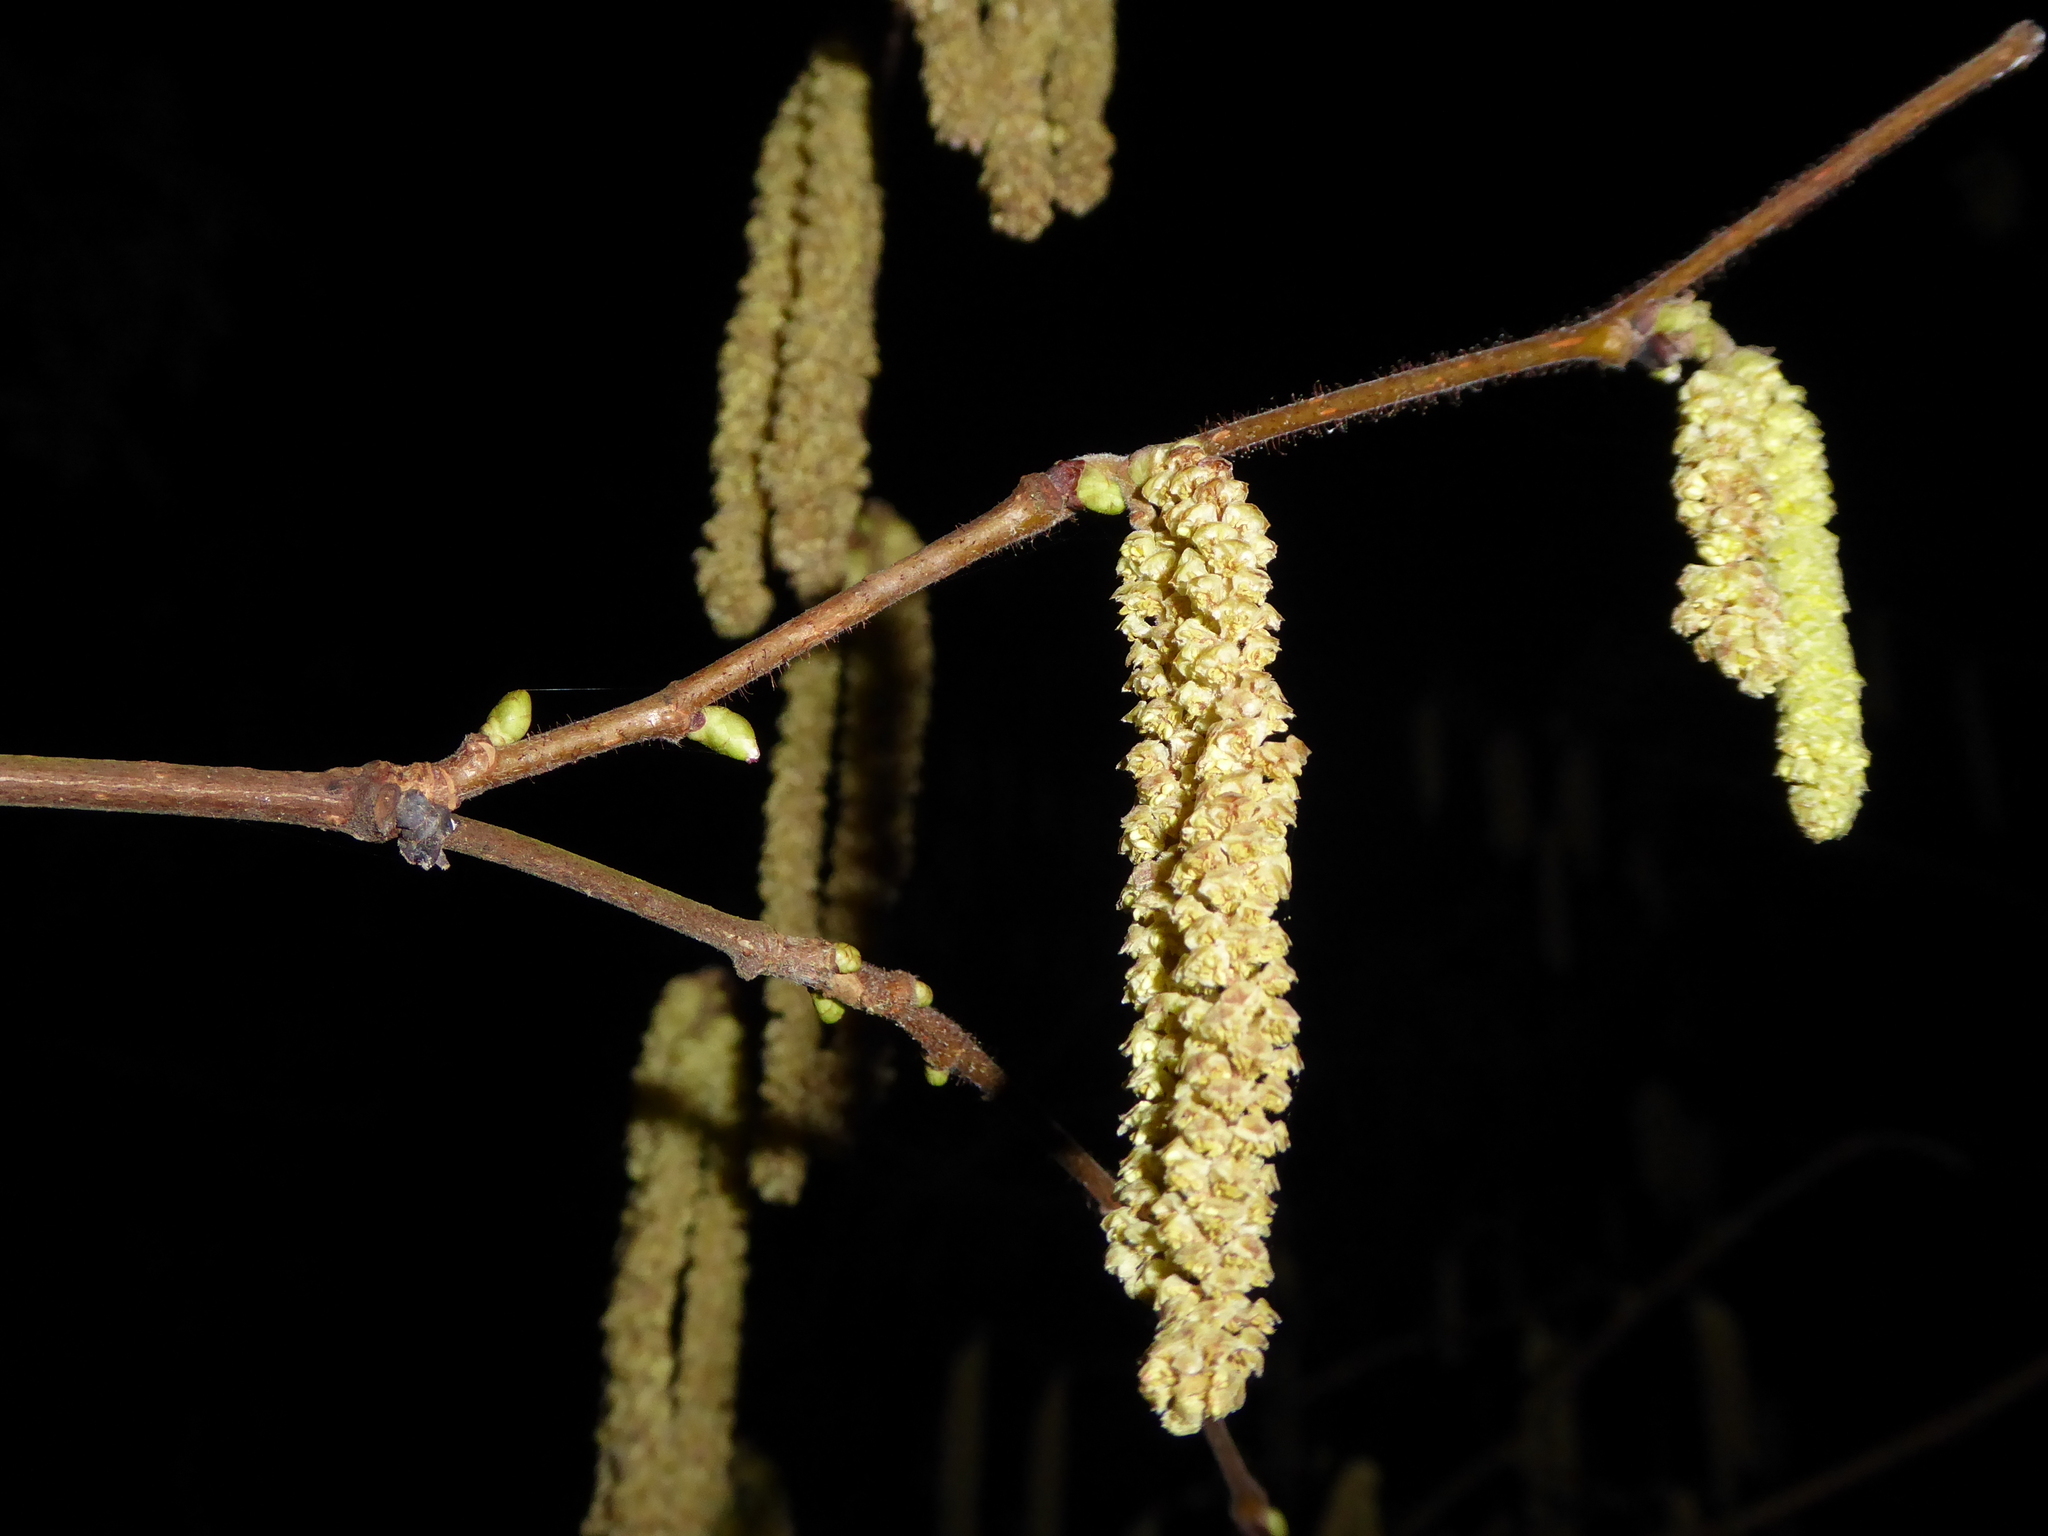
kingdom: Plantae
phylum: Tracheophyta
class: Magnoliopsida
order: Fagales
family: Betulaceae
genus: Corylus
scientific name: Corylus avellana
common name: European hazel
